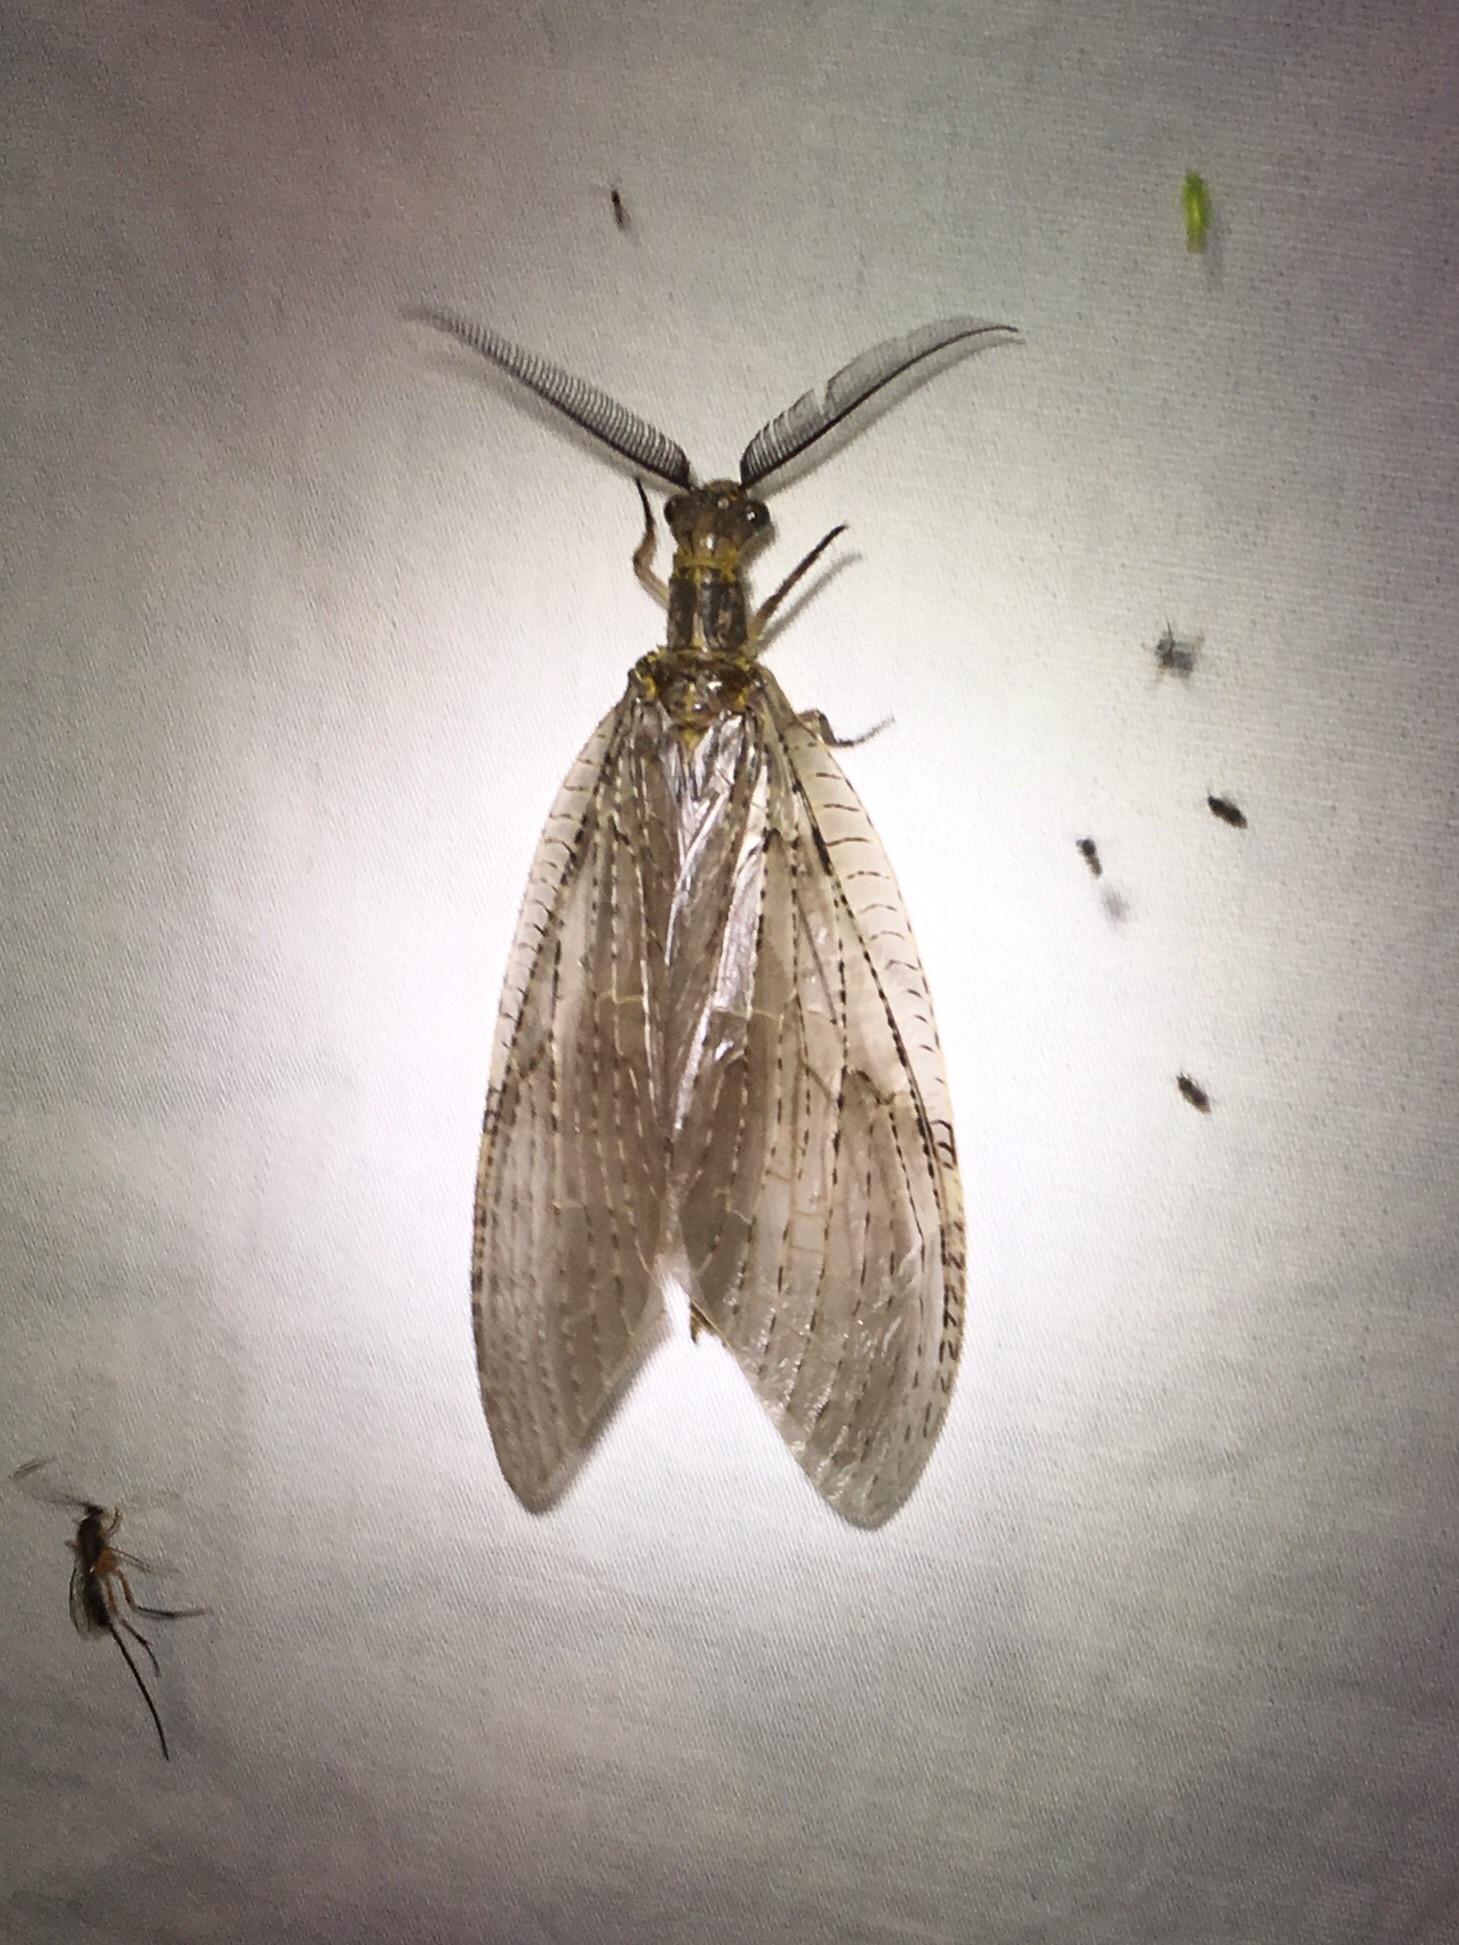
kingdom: Animalia
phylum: Arthropoda
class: Insecta
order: Megaloptera
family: Corydalidae
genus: Chauliodes
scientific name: Chauliodes pectinicornis
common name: Summer fishfly
